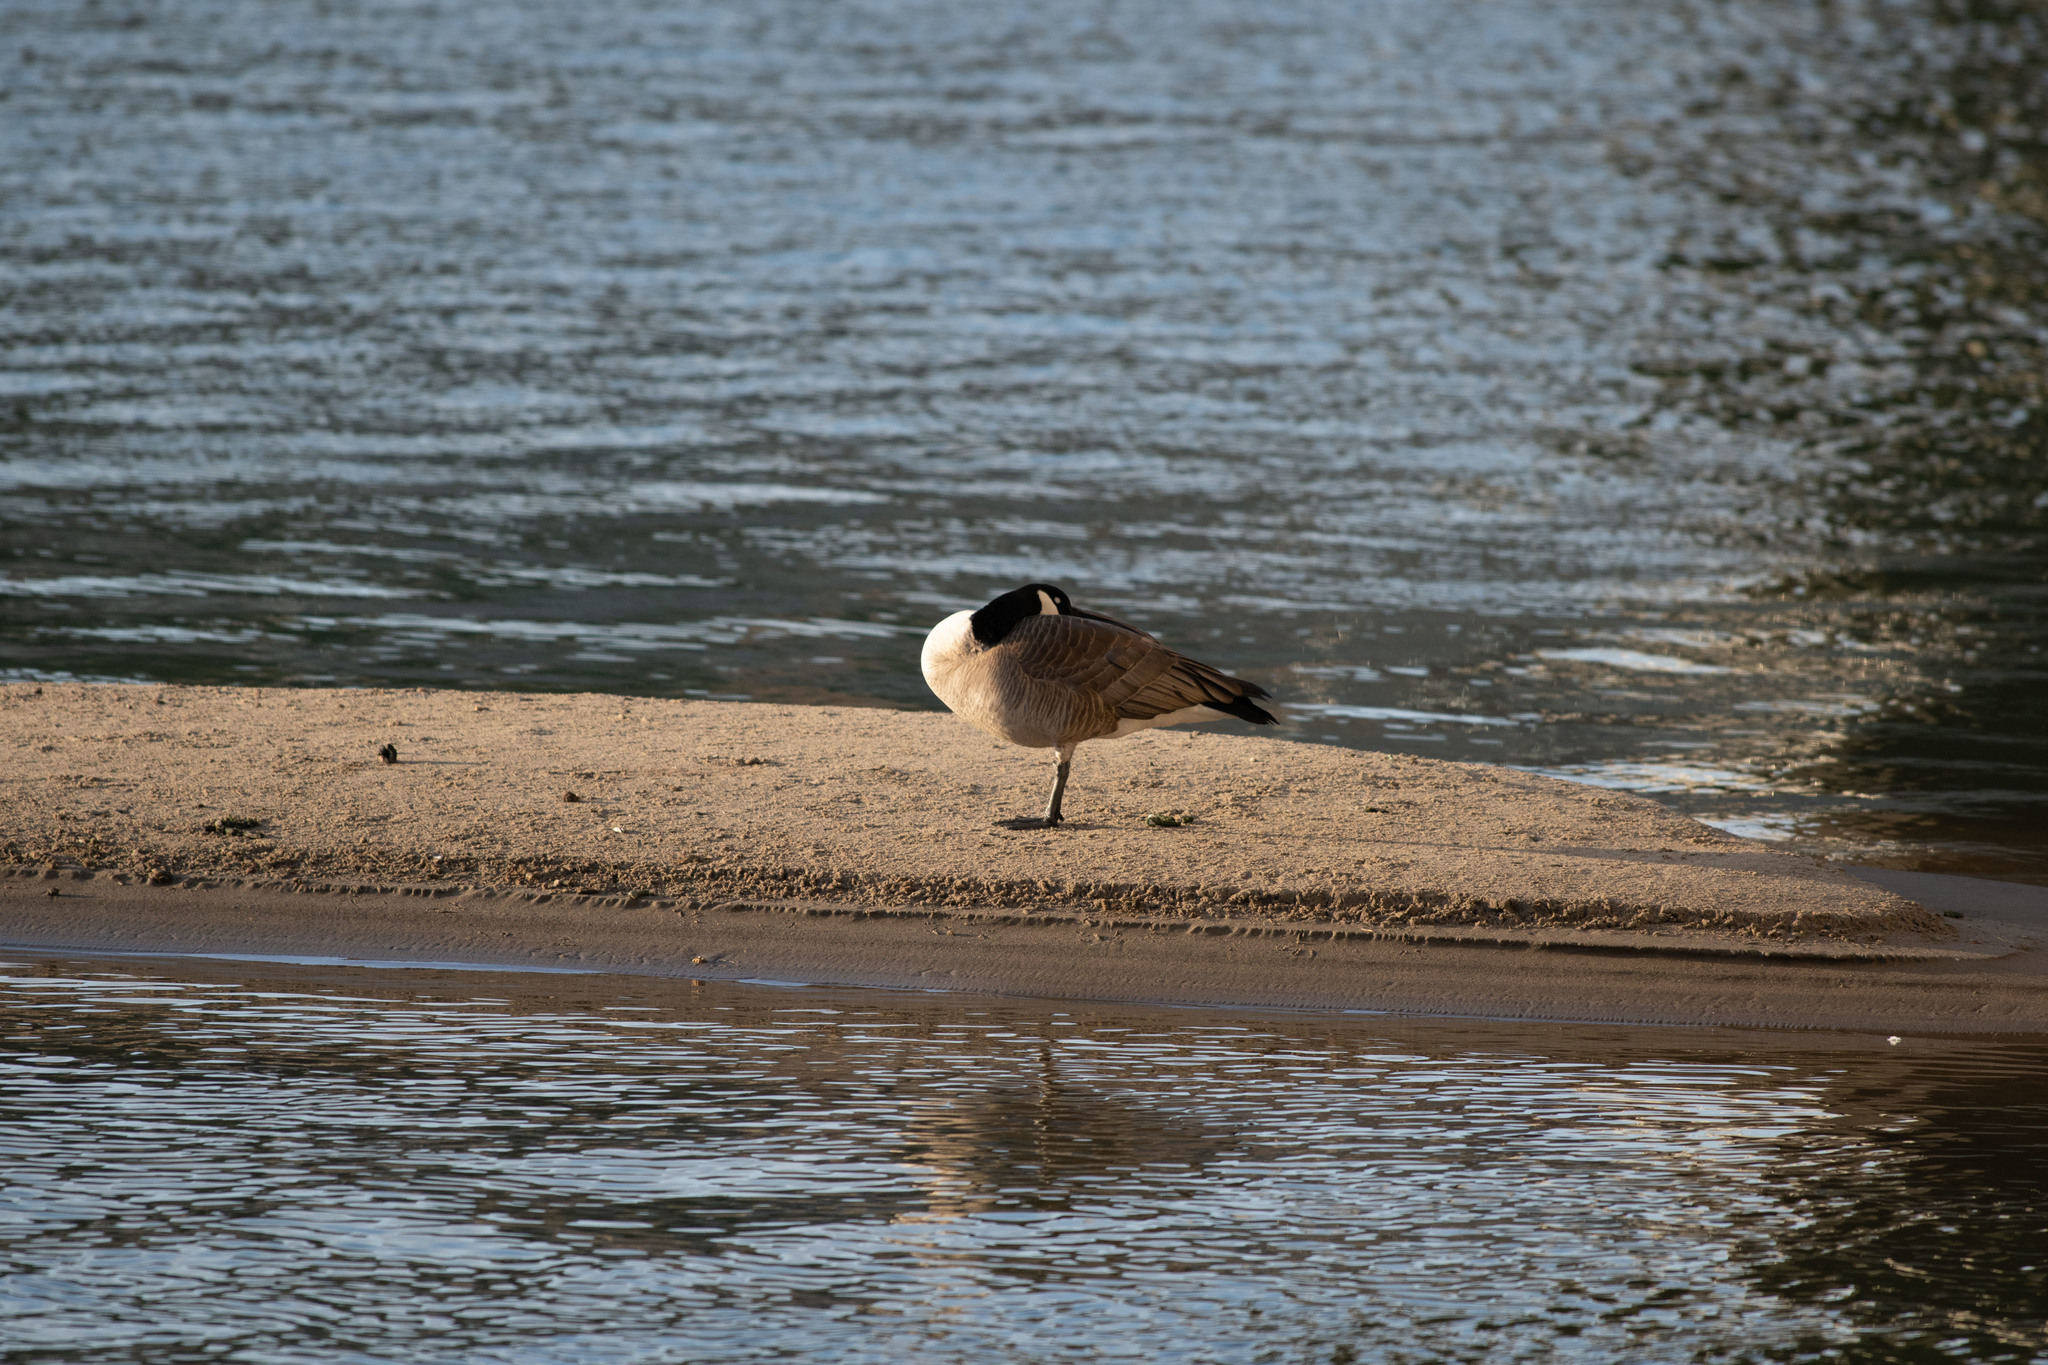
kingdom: Animalia
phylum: Chordata
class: Aves
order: Anseriformes
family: Anatidae
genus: Branta
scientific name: Branta canadensis
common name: Canada goose
